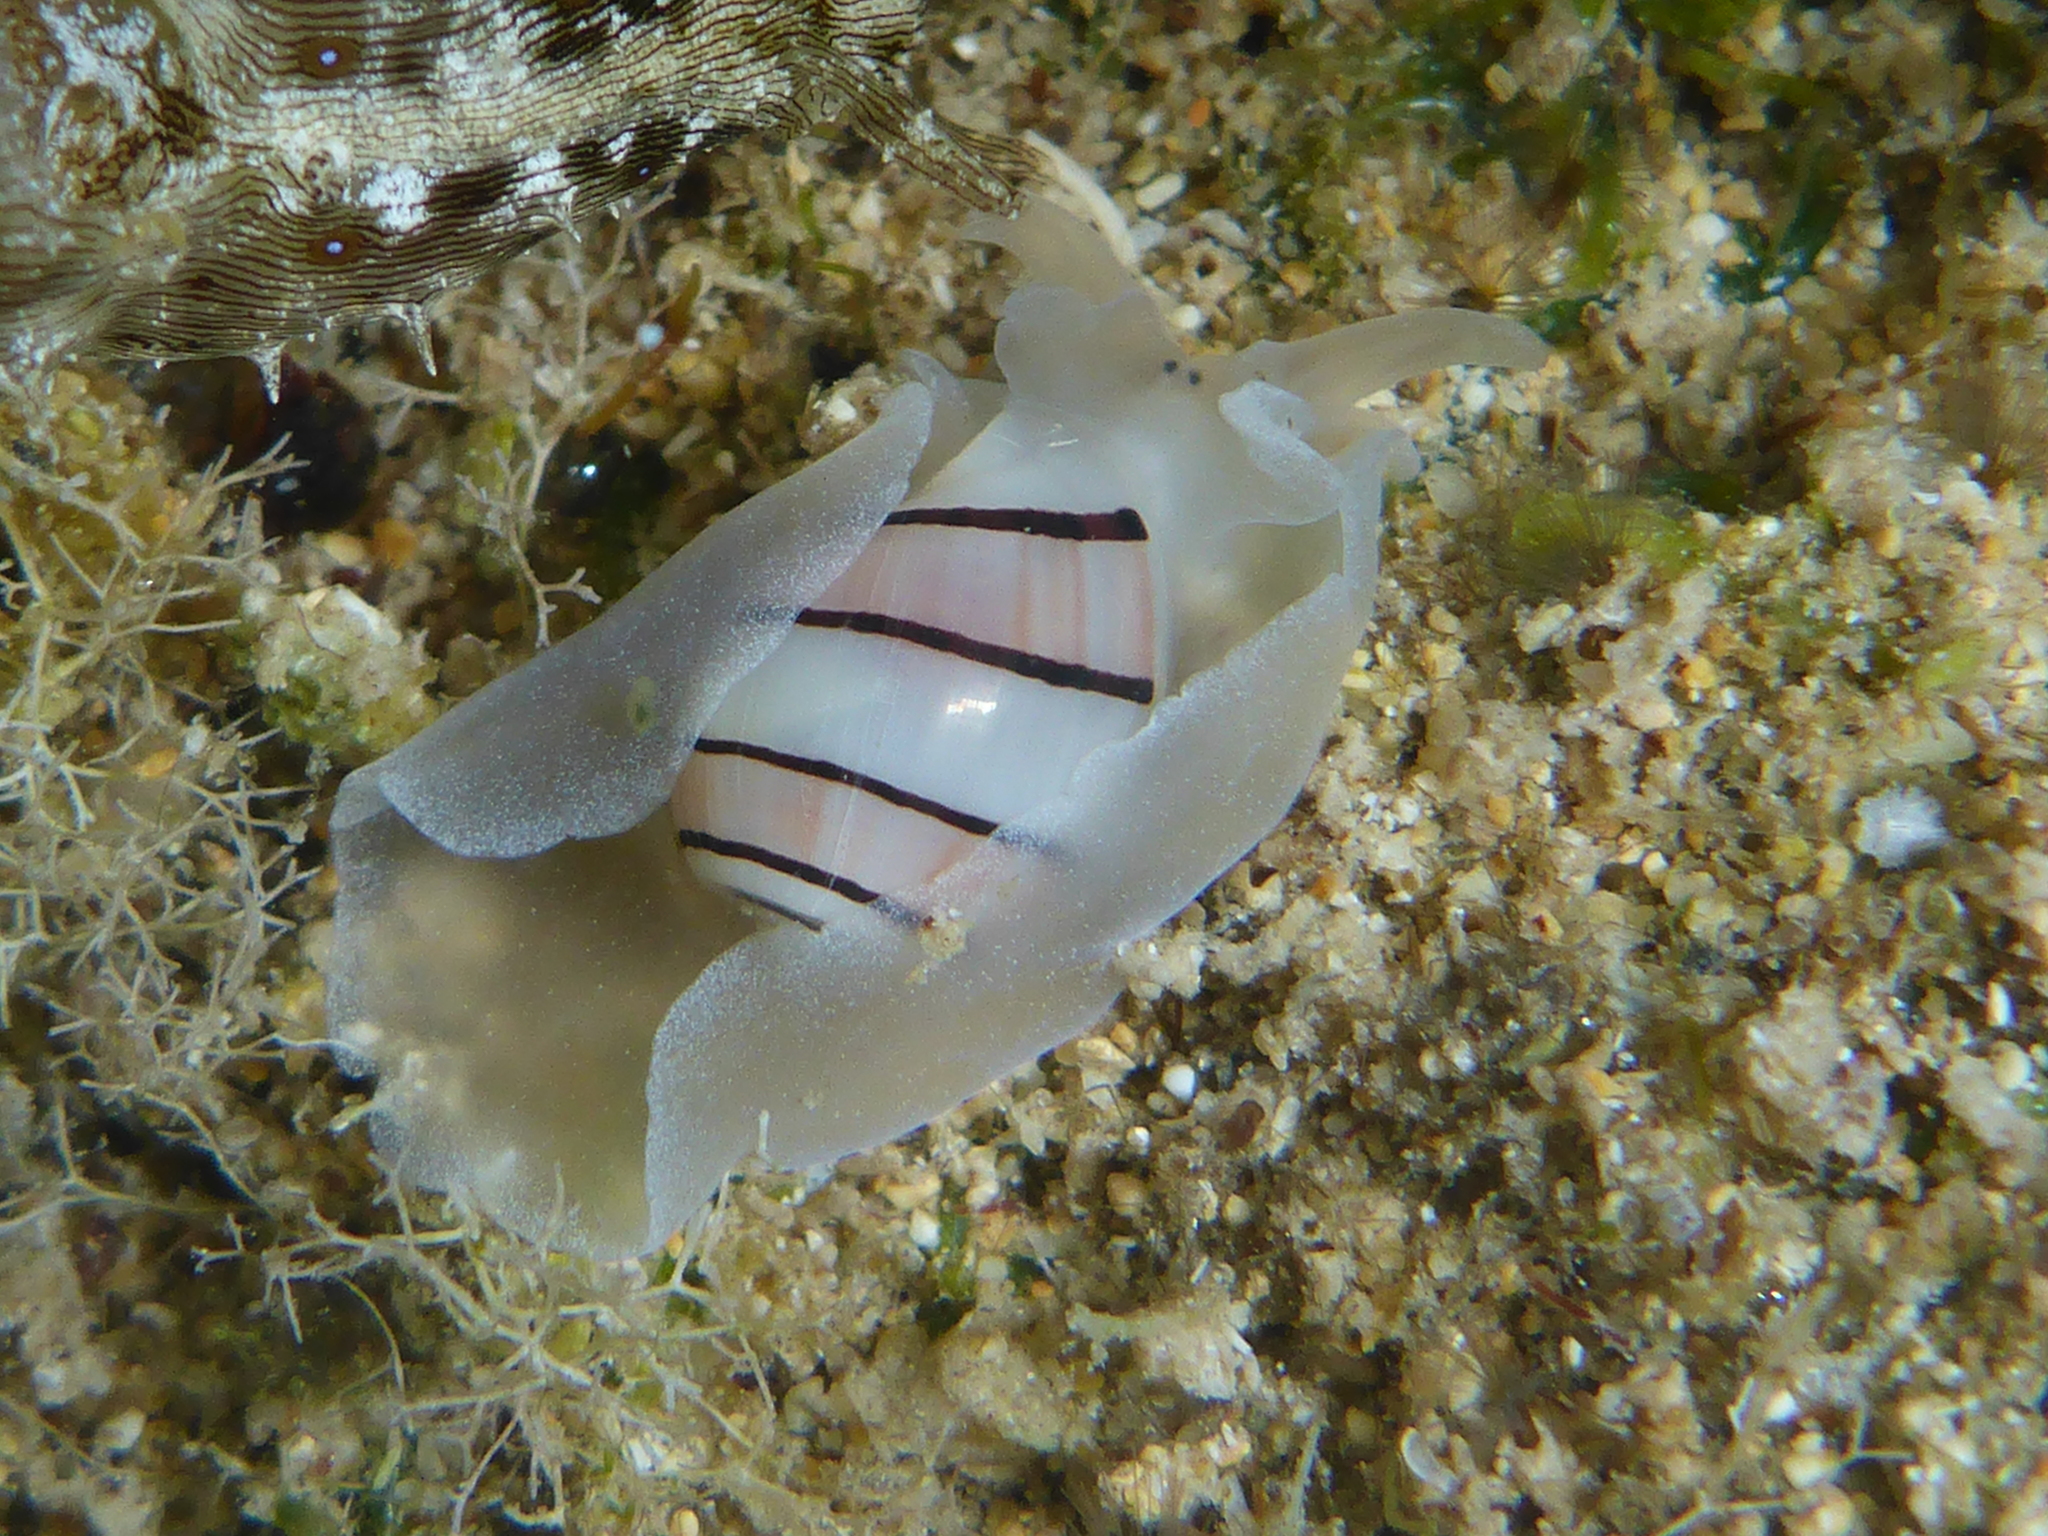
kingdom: Animalia
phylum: Mollusca
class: Gastropoda
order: Cephalaspidea
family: Aplustridae
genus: Aplustrum
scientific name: Aplustrum amplustre
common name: Royal paperbubble
